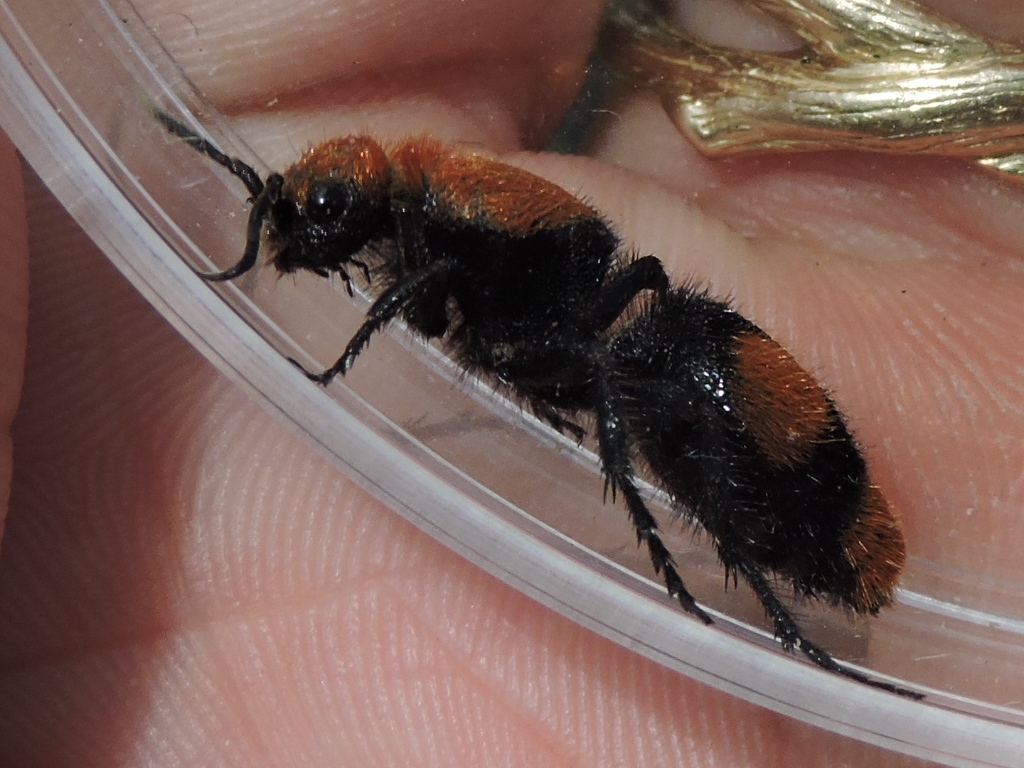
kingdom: Animalia
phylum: Arthropoda
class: Insecta
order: Hymenoptera
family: Mutillidae
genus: Dasymutilla
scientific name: Dasymutilla occidentalis
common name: Common eastern velvet ant
